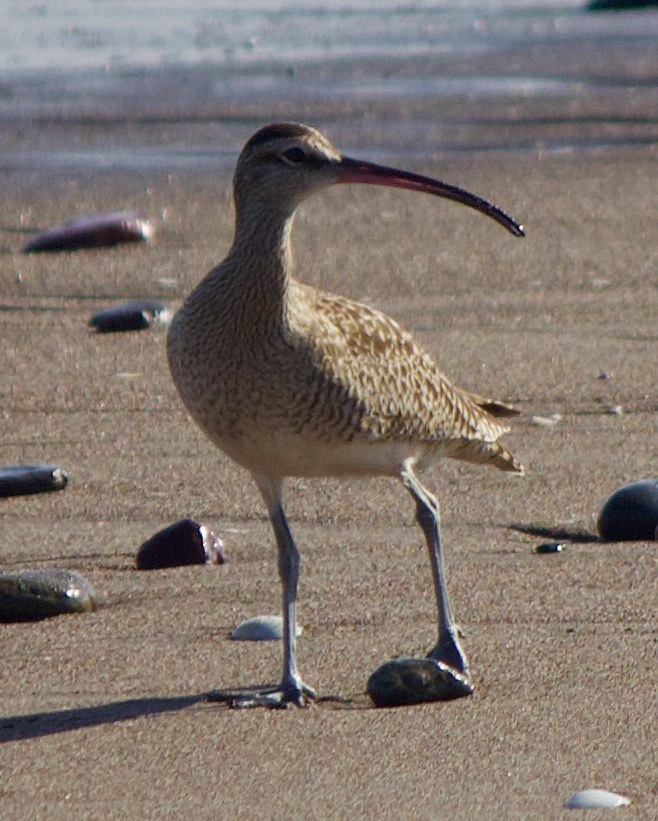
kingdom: Animalia
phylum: Chordata
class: Aves
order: Charadriiformes
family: Scolopacidae
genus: Numenius
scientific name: Numenius hudsonicus
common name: Hudsonian whimbrel
